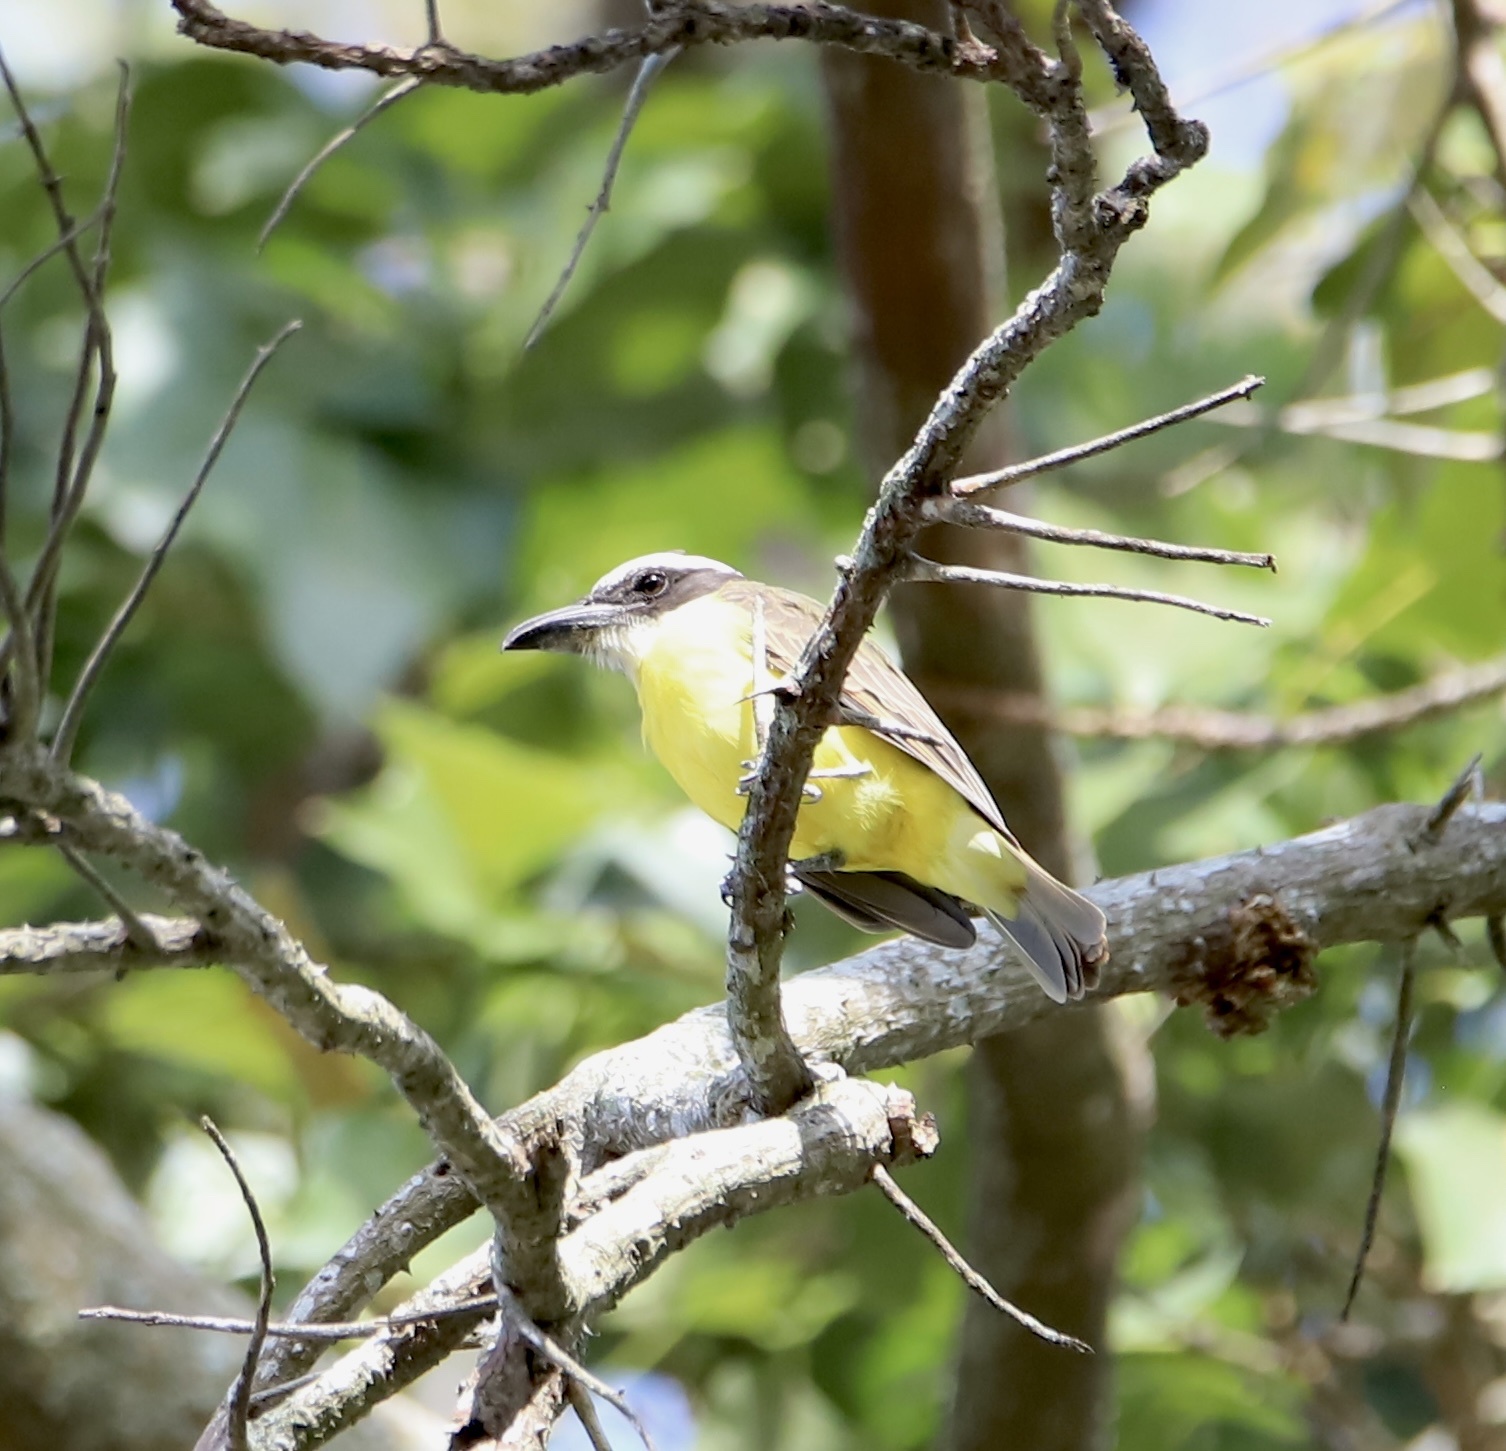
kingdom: Animalia
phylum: Chordata
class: Aves
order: Passeriformes
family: Tyrannidae
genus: Megarynchus
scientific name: Megarynchus pitangua
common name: Boat-billed flycatcher
